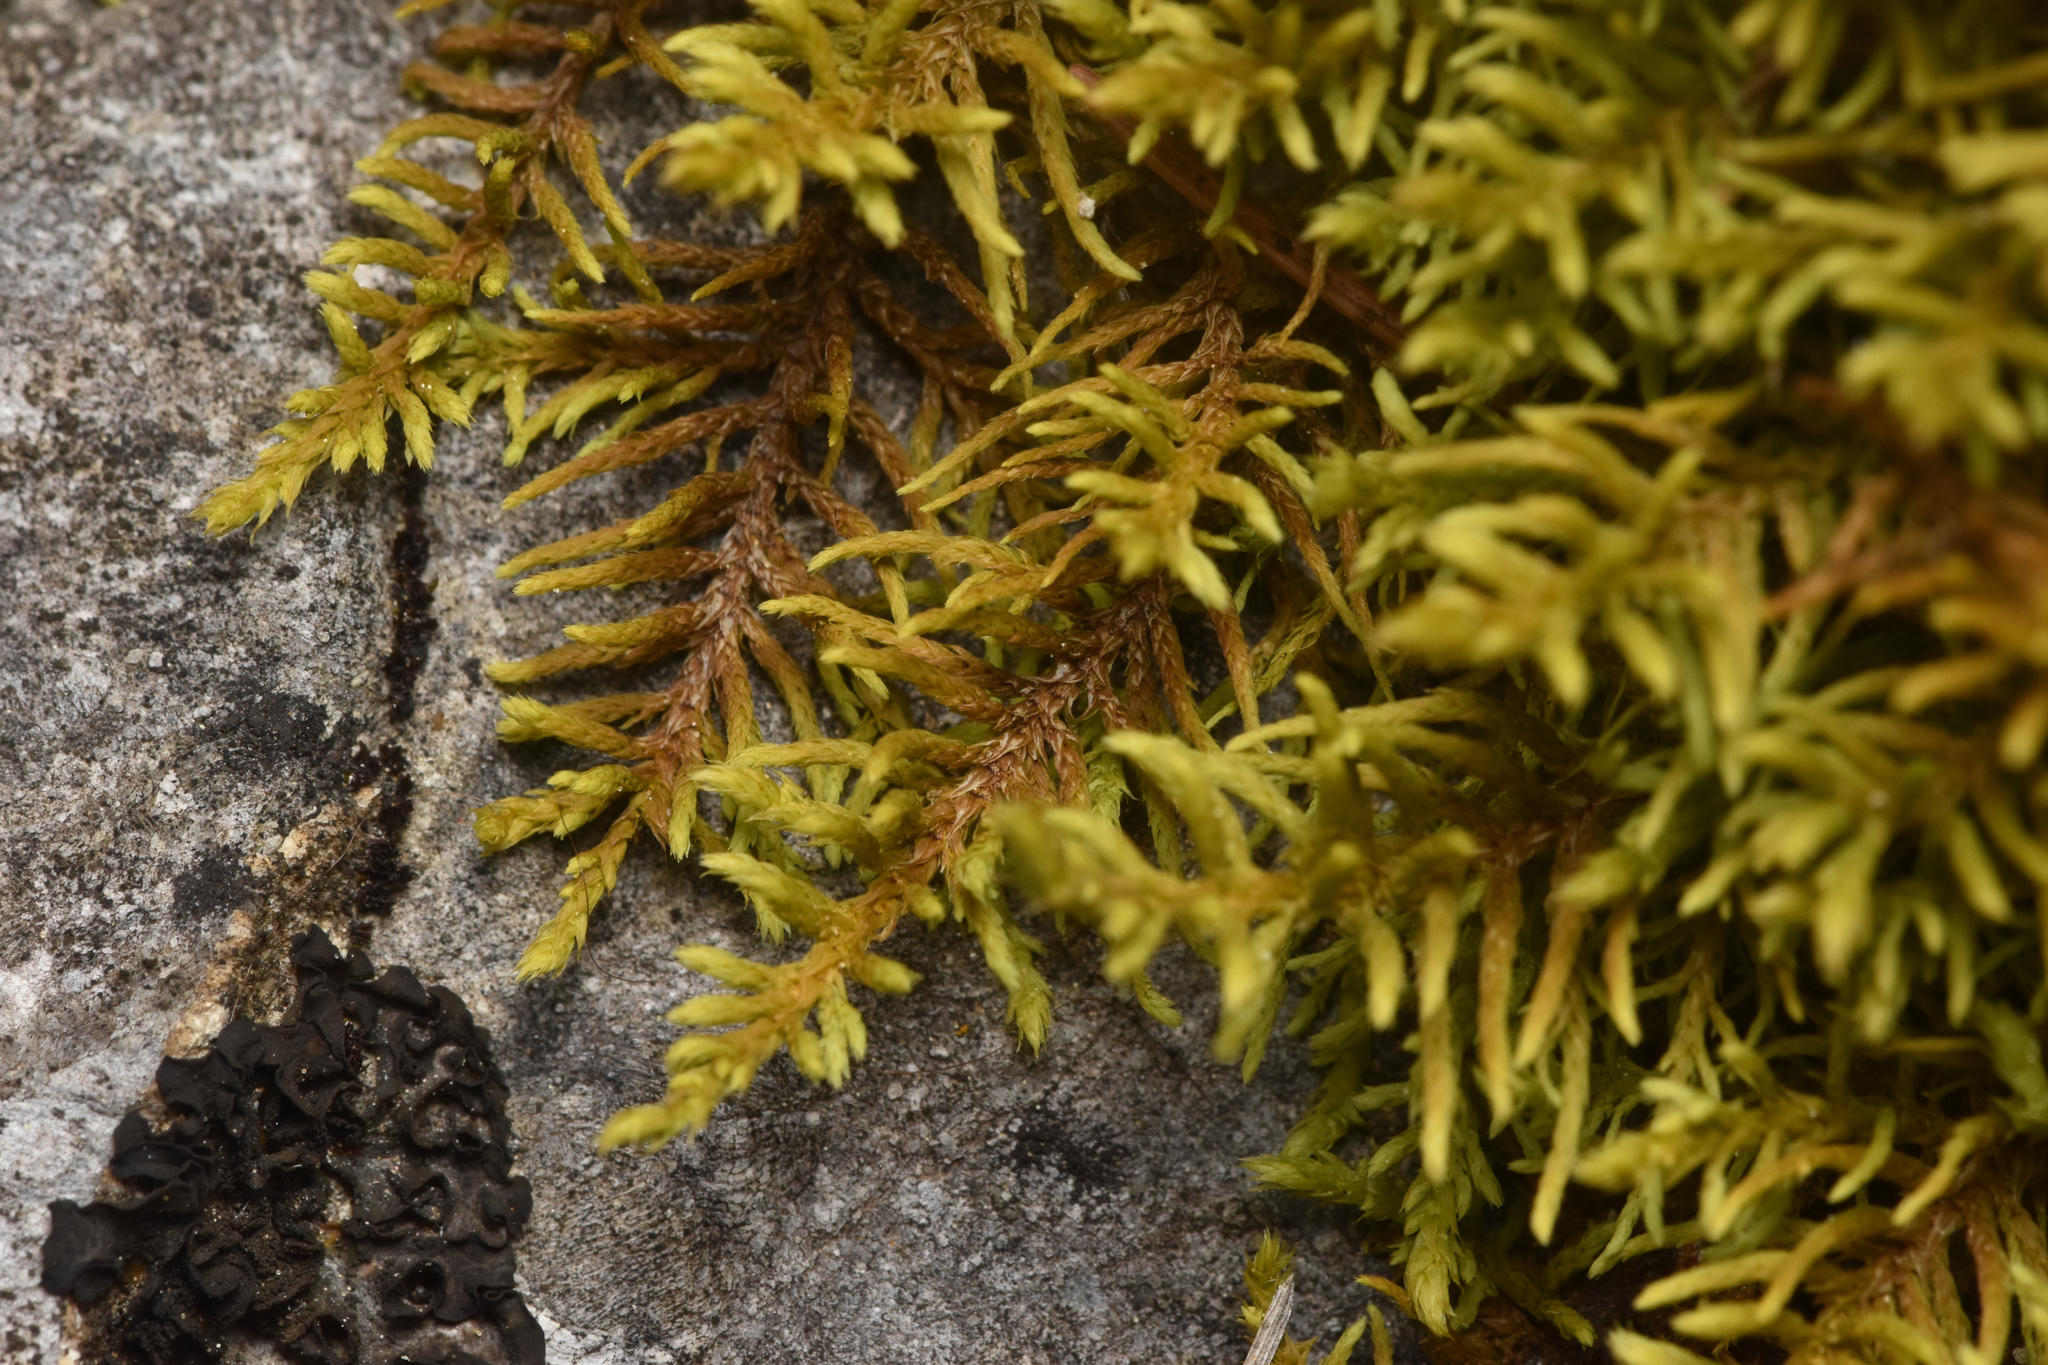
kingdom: Plantae
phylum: Bryophyta
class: Bryopsida
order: Hypnales
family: Thuidiaceae
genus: Abietinella
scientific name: Abietinella abietina
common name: Wiry fern moss
